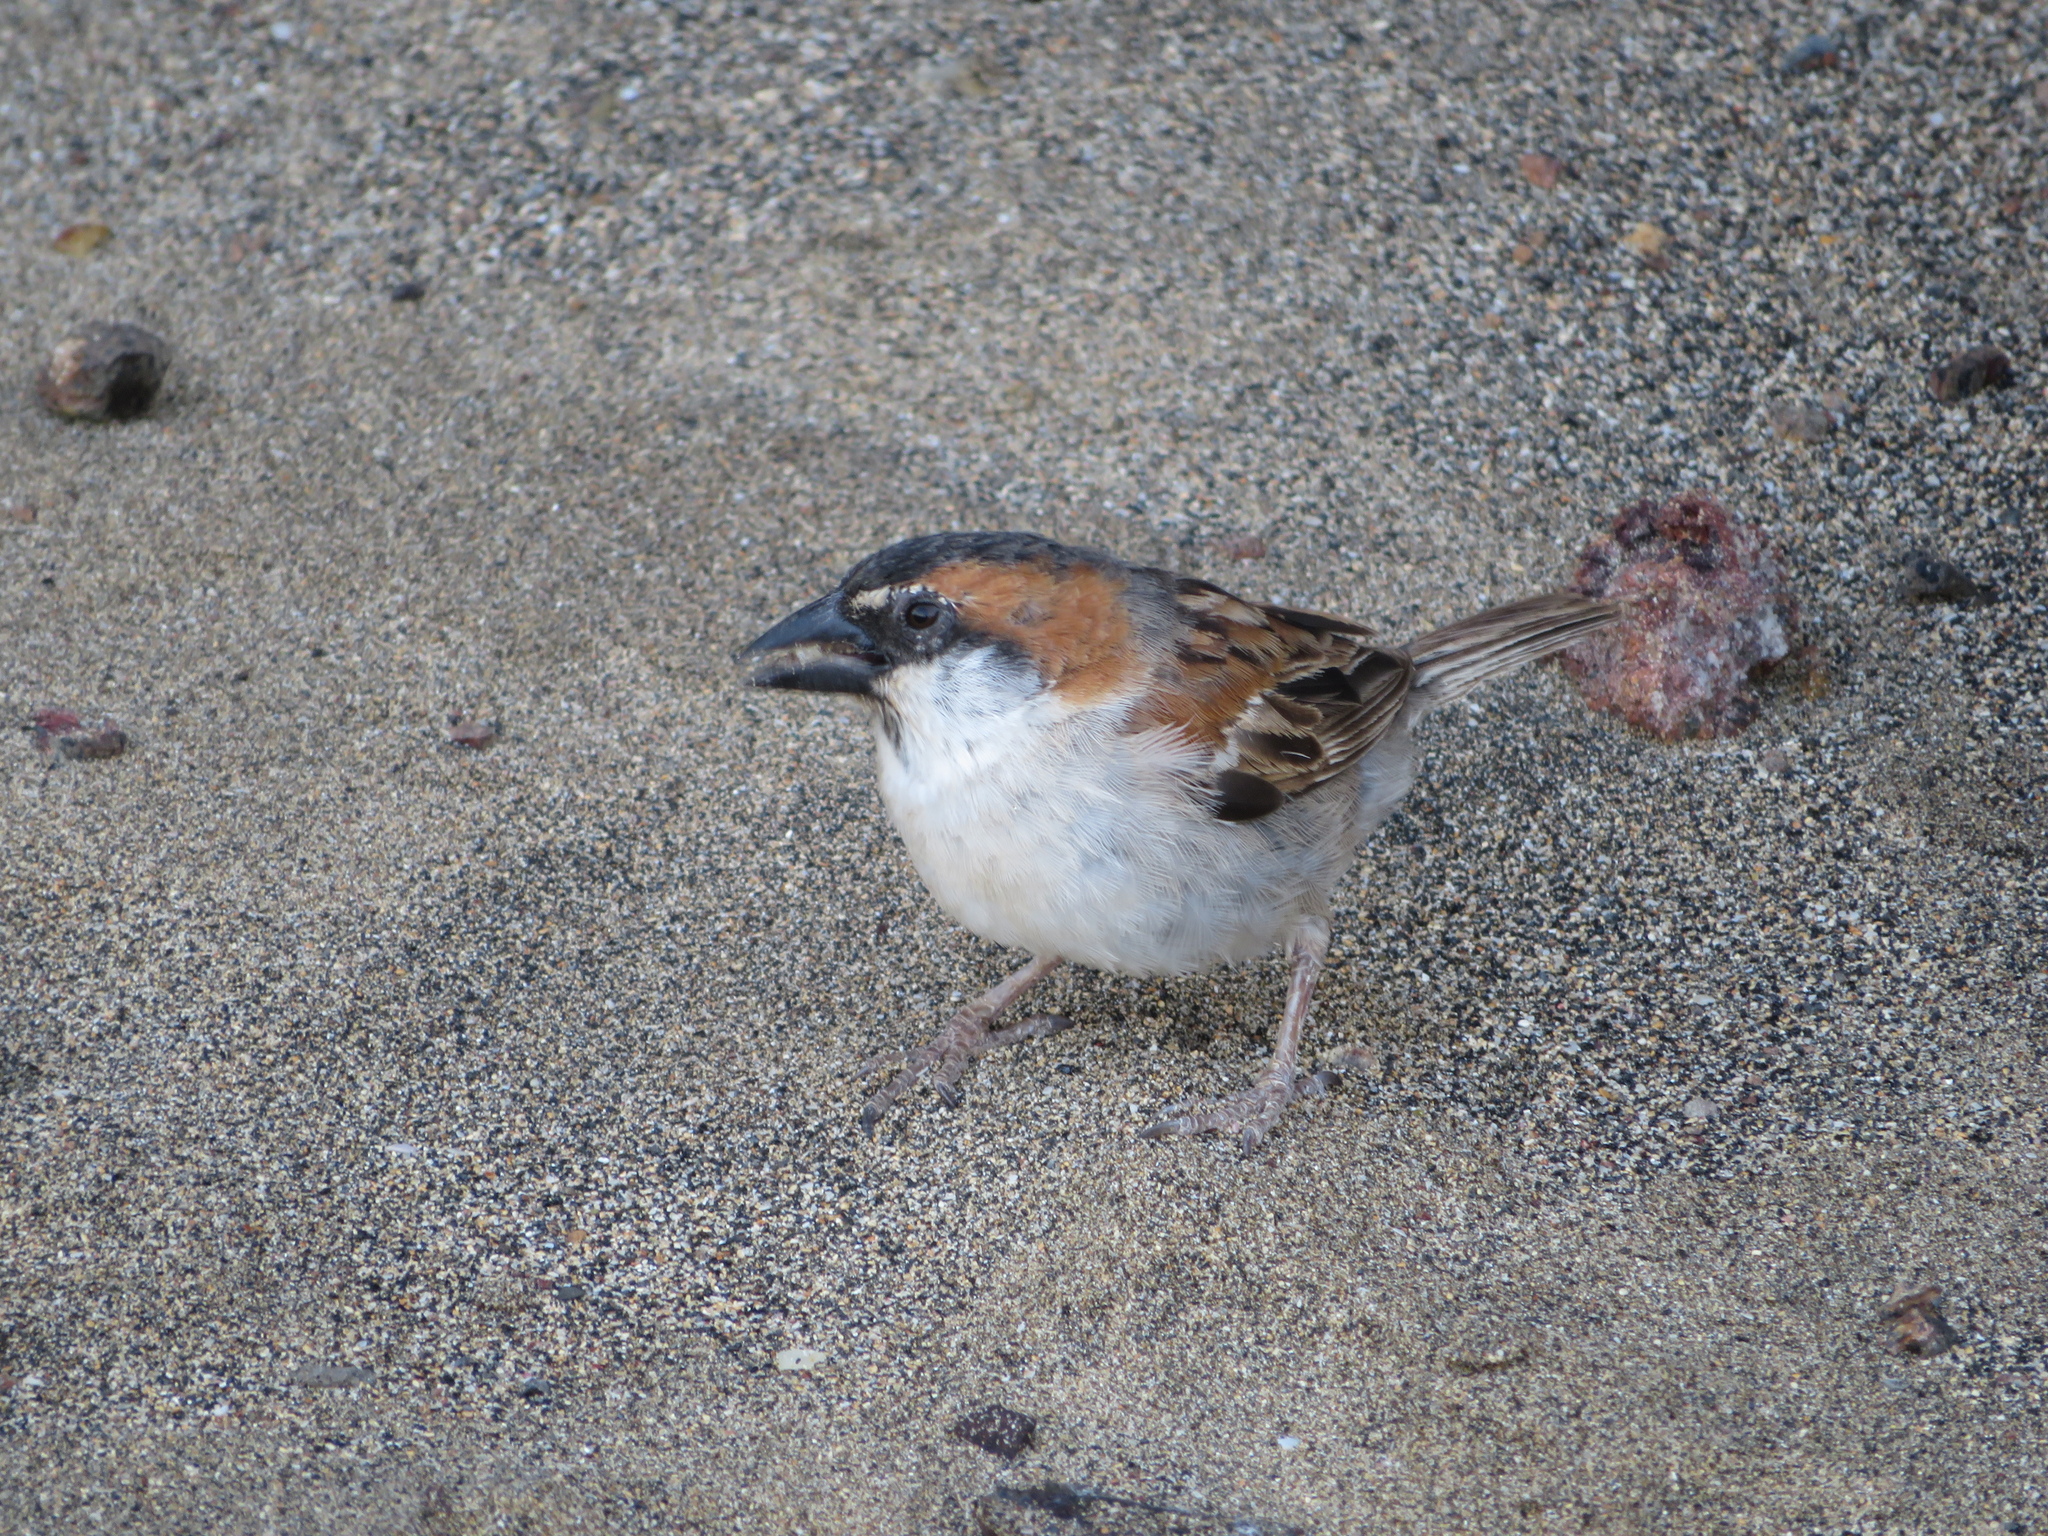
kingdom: Animalia
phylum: Chordata
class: Aves
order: Passeriformes
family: Passeridae
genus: Passer
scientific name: Passer iagoensis
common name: Iago sparrow
